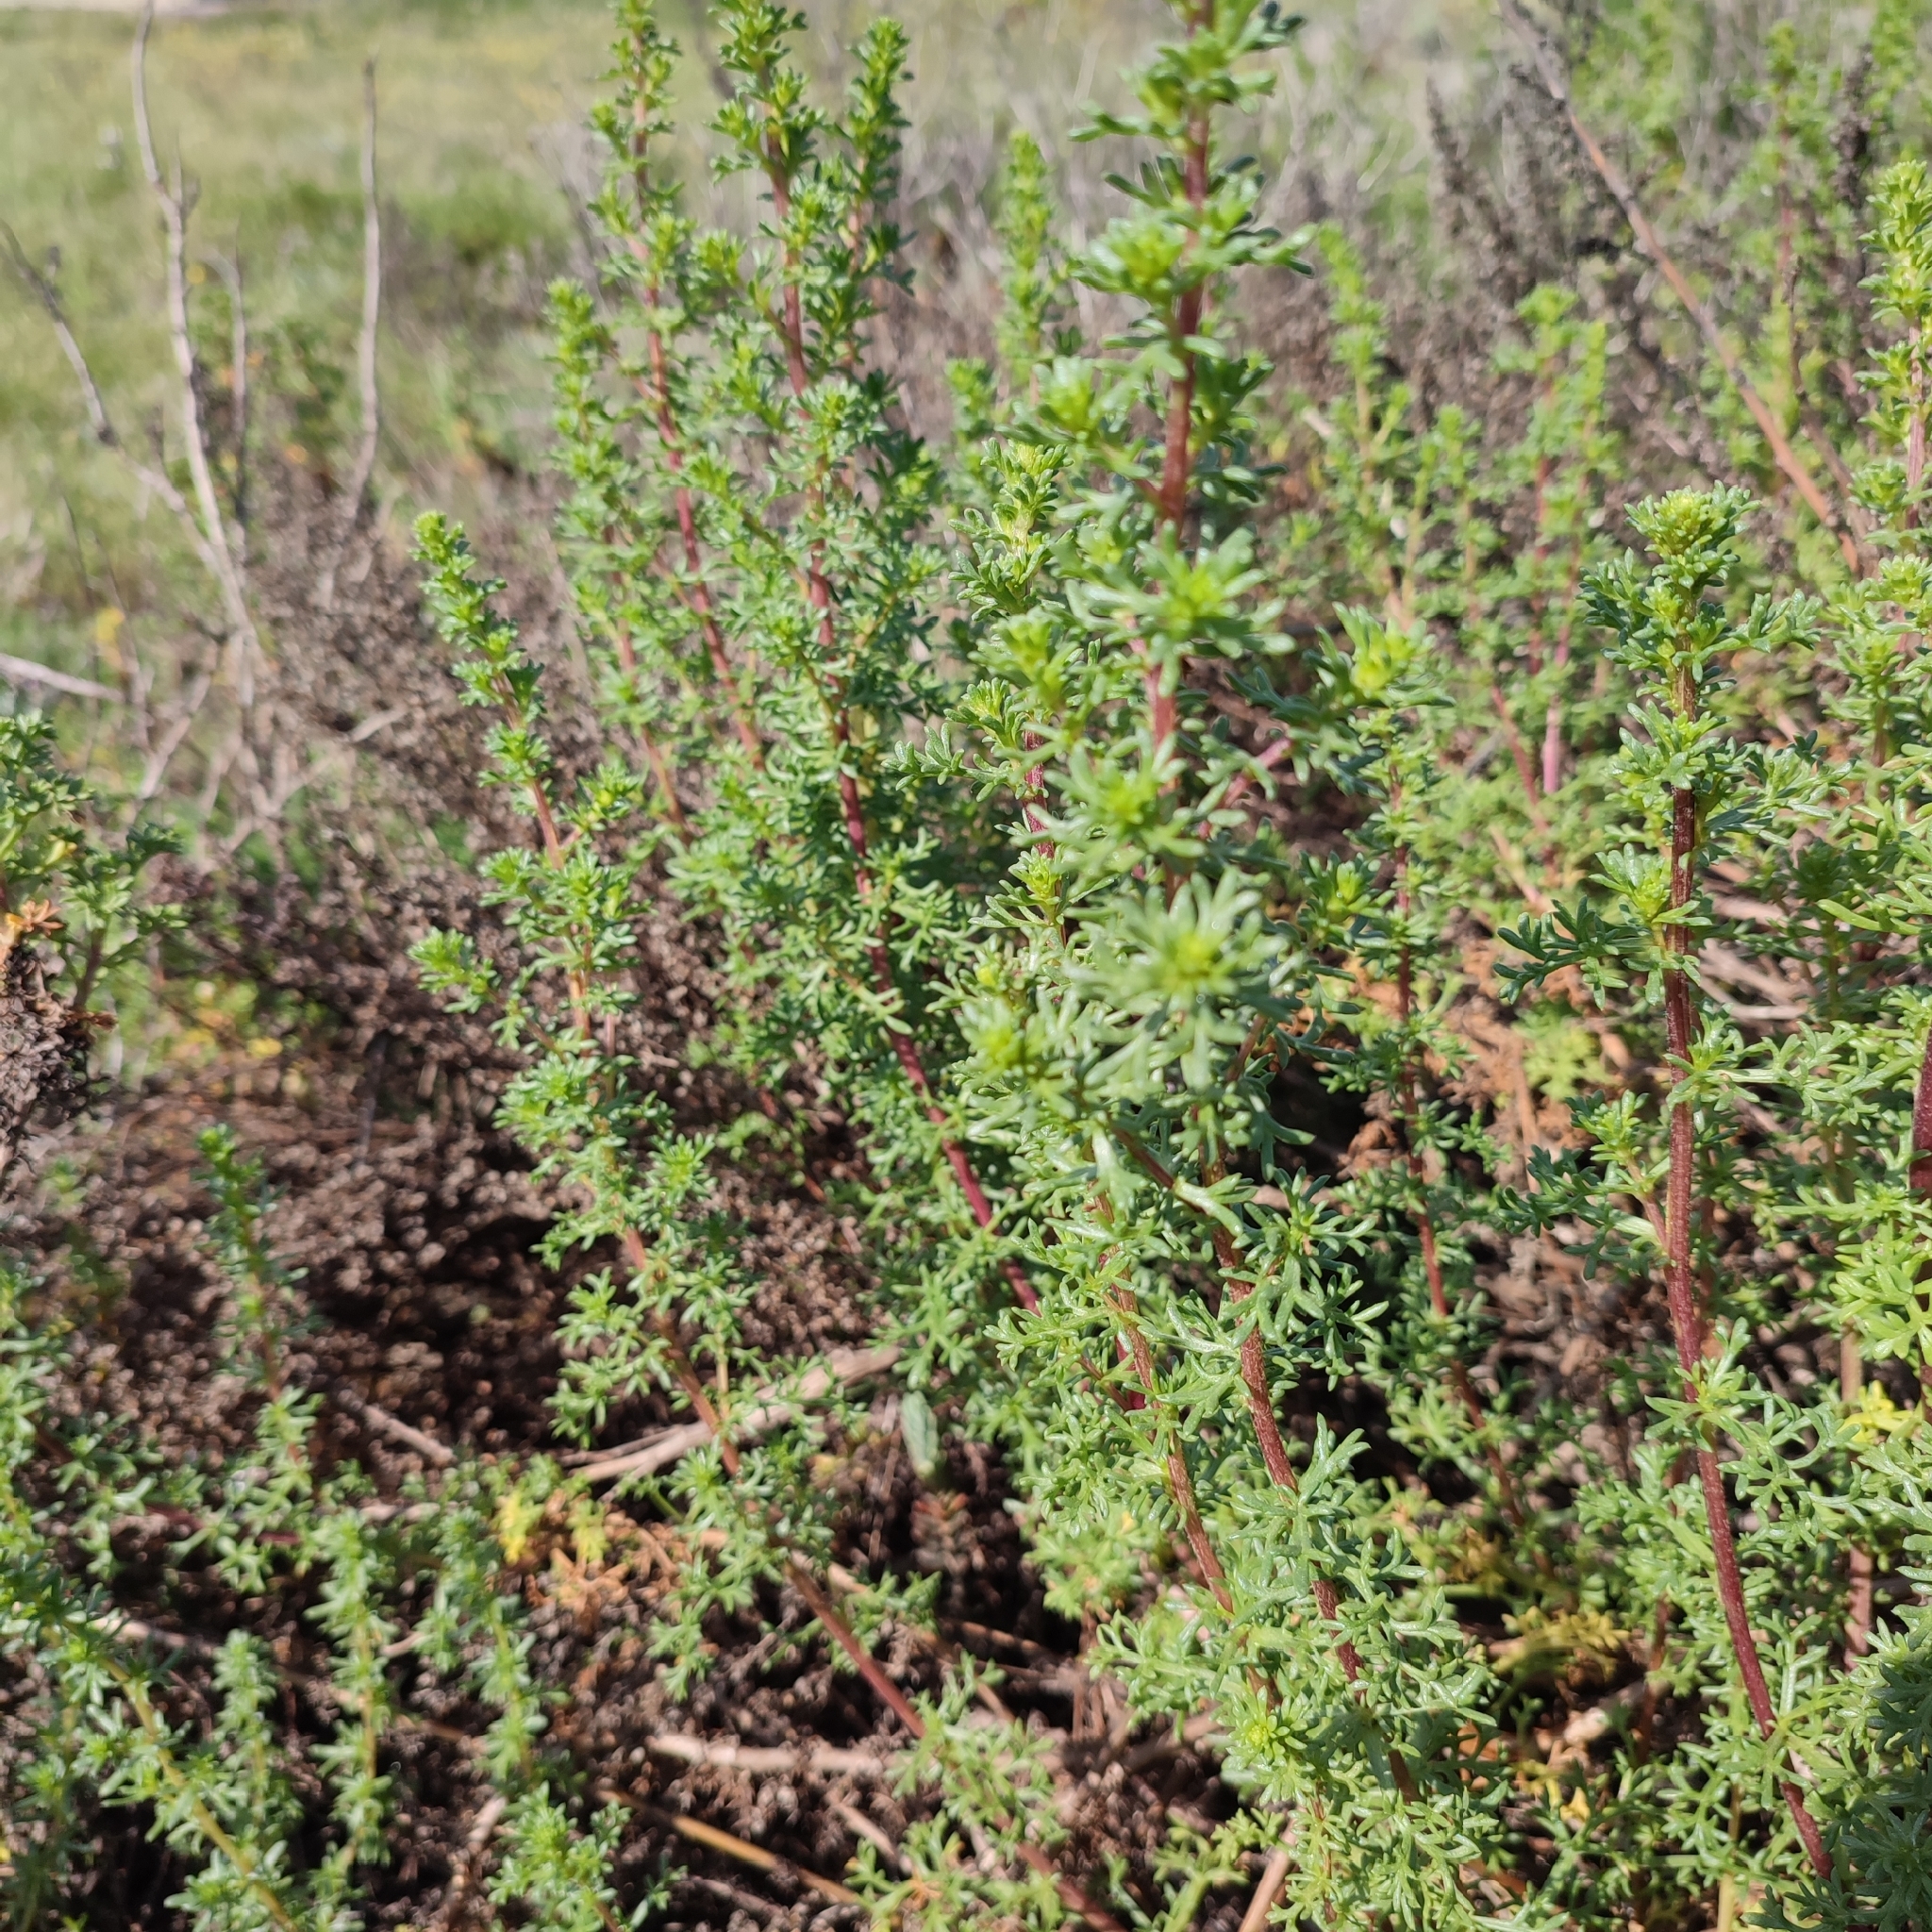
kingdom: Plantae
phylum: Tracheophyta
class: Magnoliopsida
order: Asterales
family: Asteraceae
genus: Artemisia
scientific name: Artemisia campestris
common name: Field wormwood
